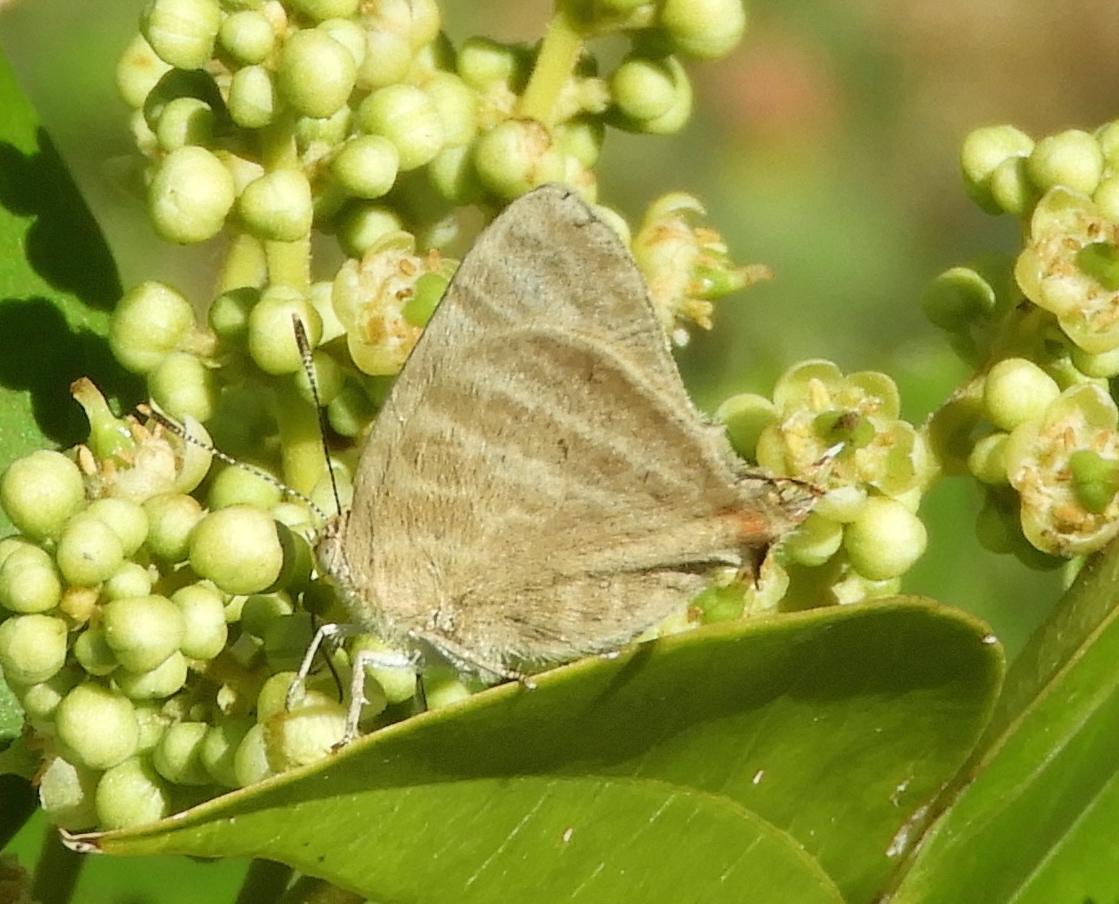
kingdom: Animalia
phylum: Arthropoda
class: Insecta
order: Lepidoptera
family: Lycaenidae
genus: Dolymorpha
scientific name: Dolymorpha jada
